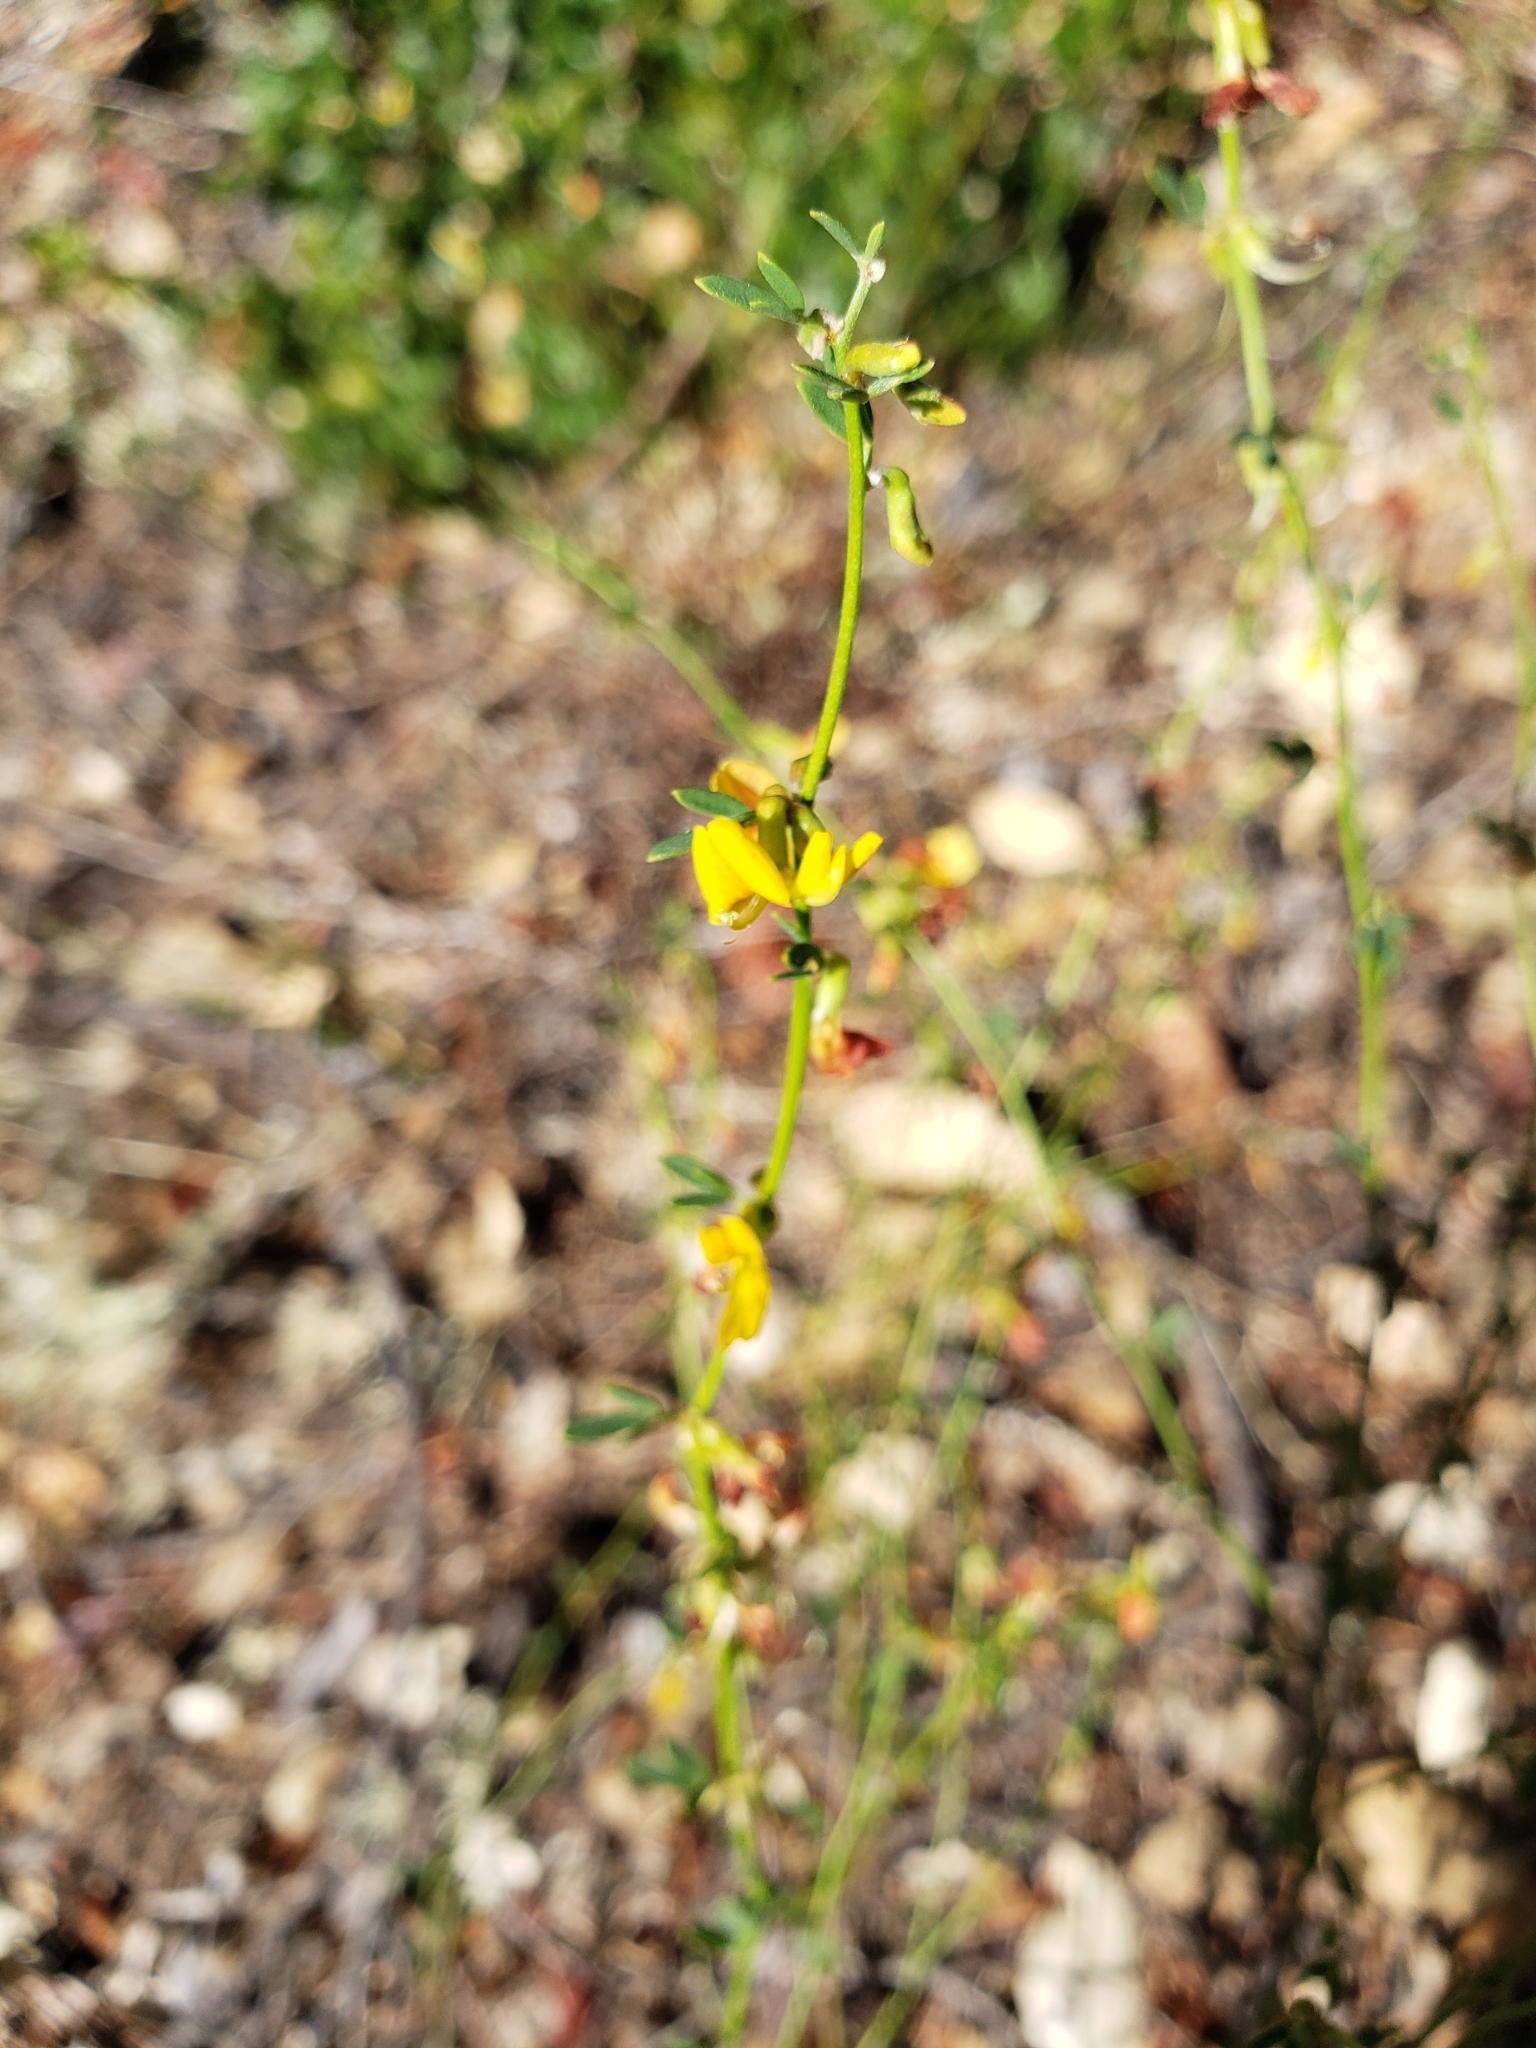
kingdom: Plantae
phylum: Tracheophyta
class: Magnoliopsida
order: Fabales
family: Fabaceae
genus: Acmispon
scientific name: Acmispon glaber
